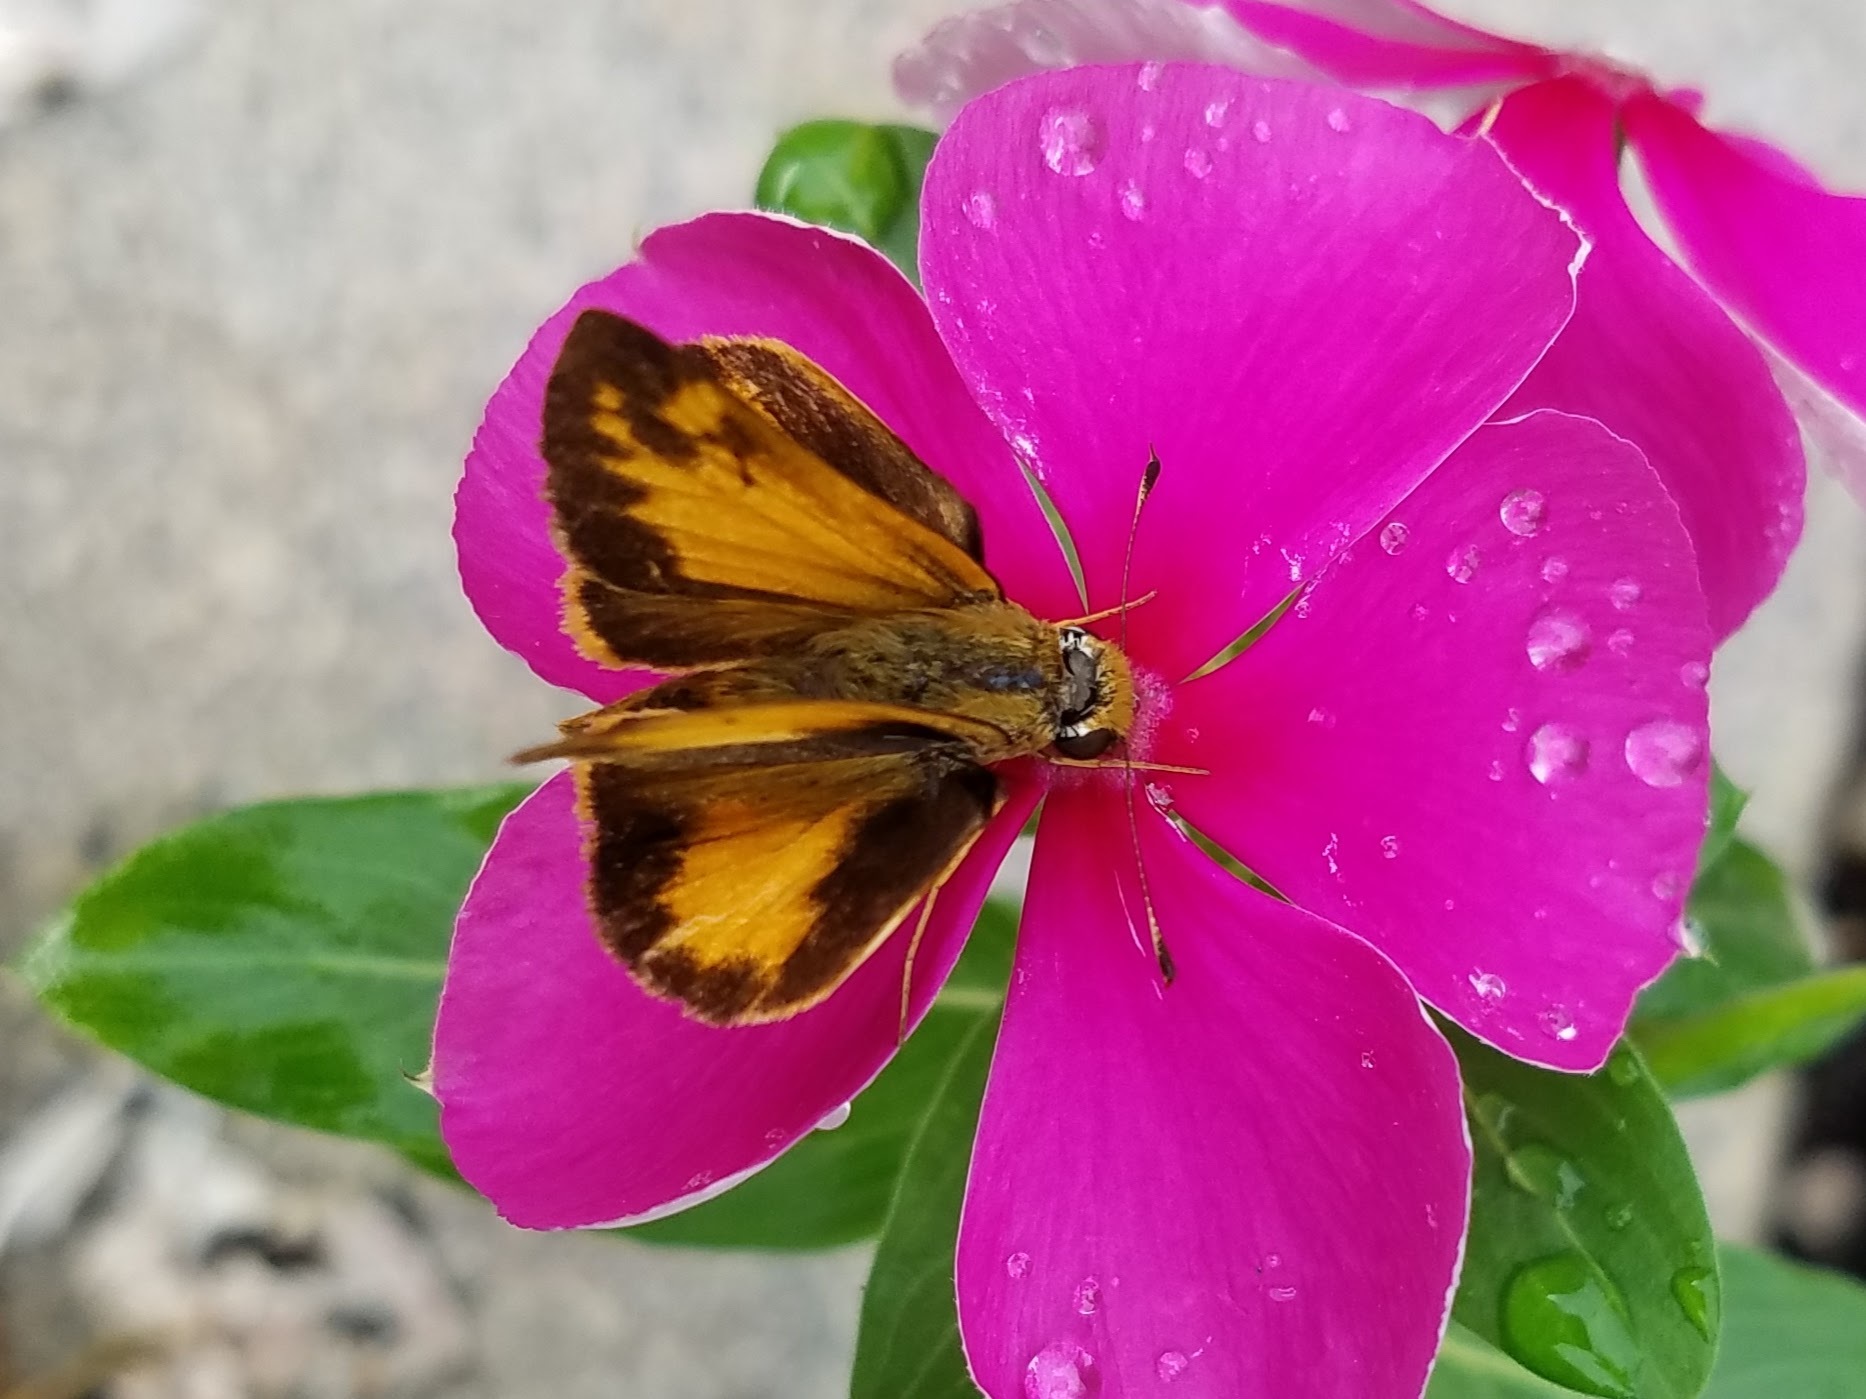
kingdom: Animalia
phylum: Arthropoda
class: Insecta
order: Lepidoptera
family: Hesperiidae
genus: Lon
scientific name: Lon zabulon
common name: Zabulon skipper
